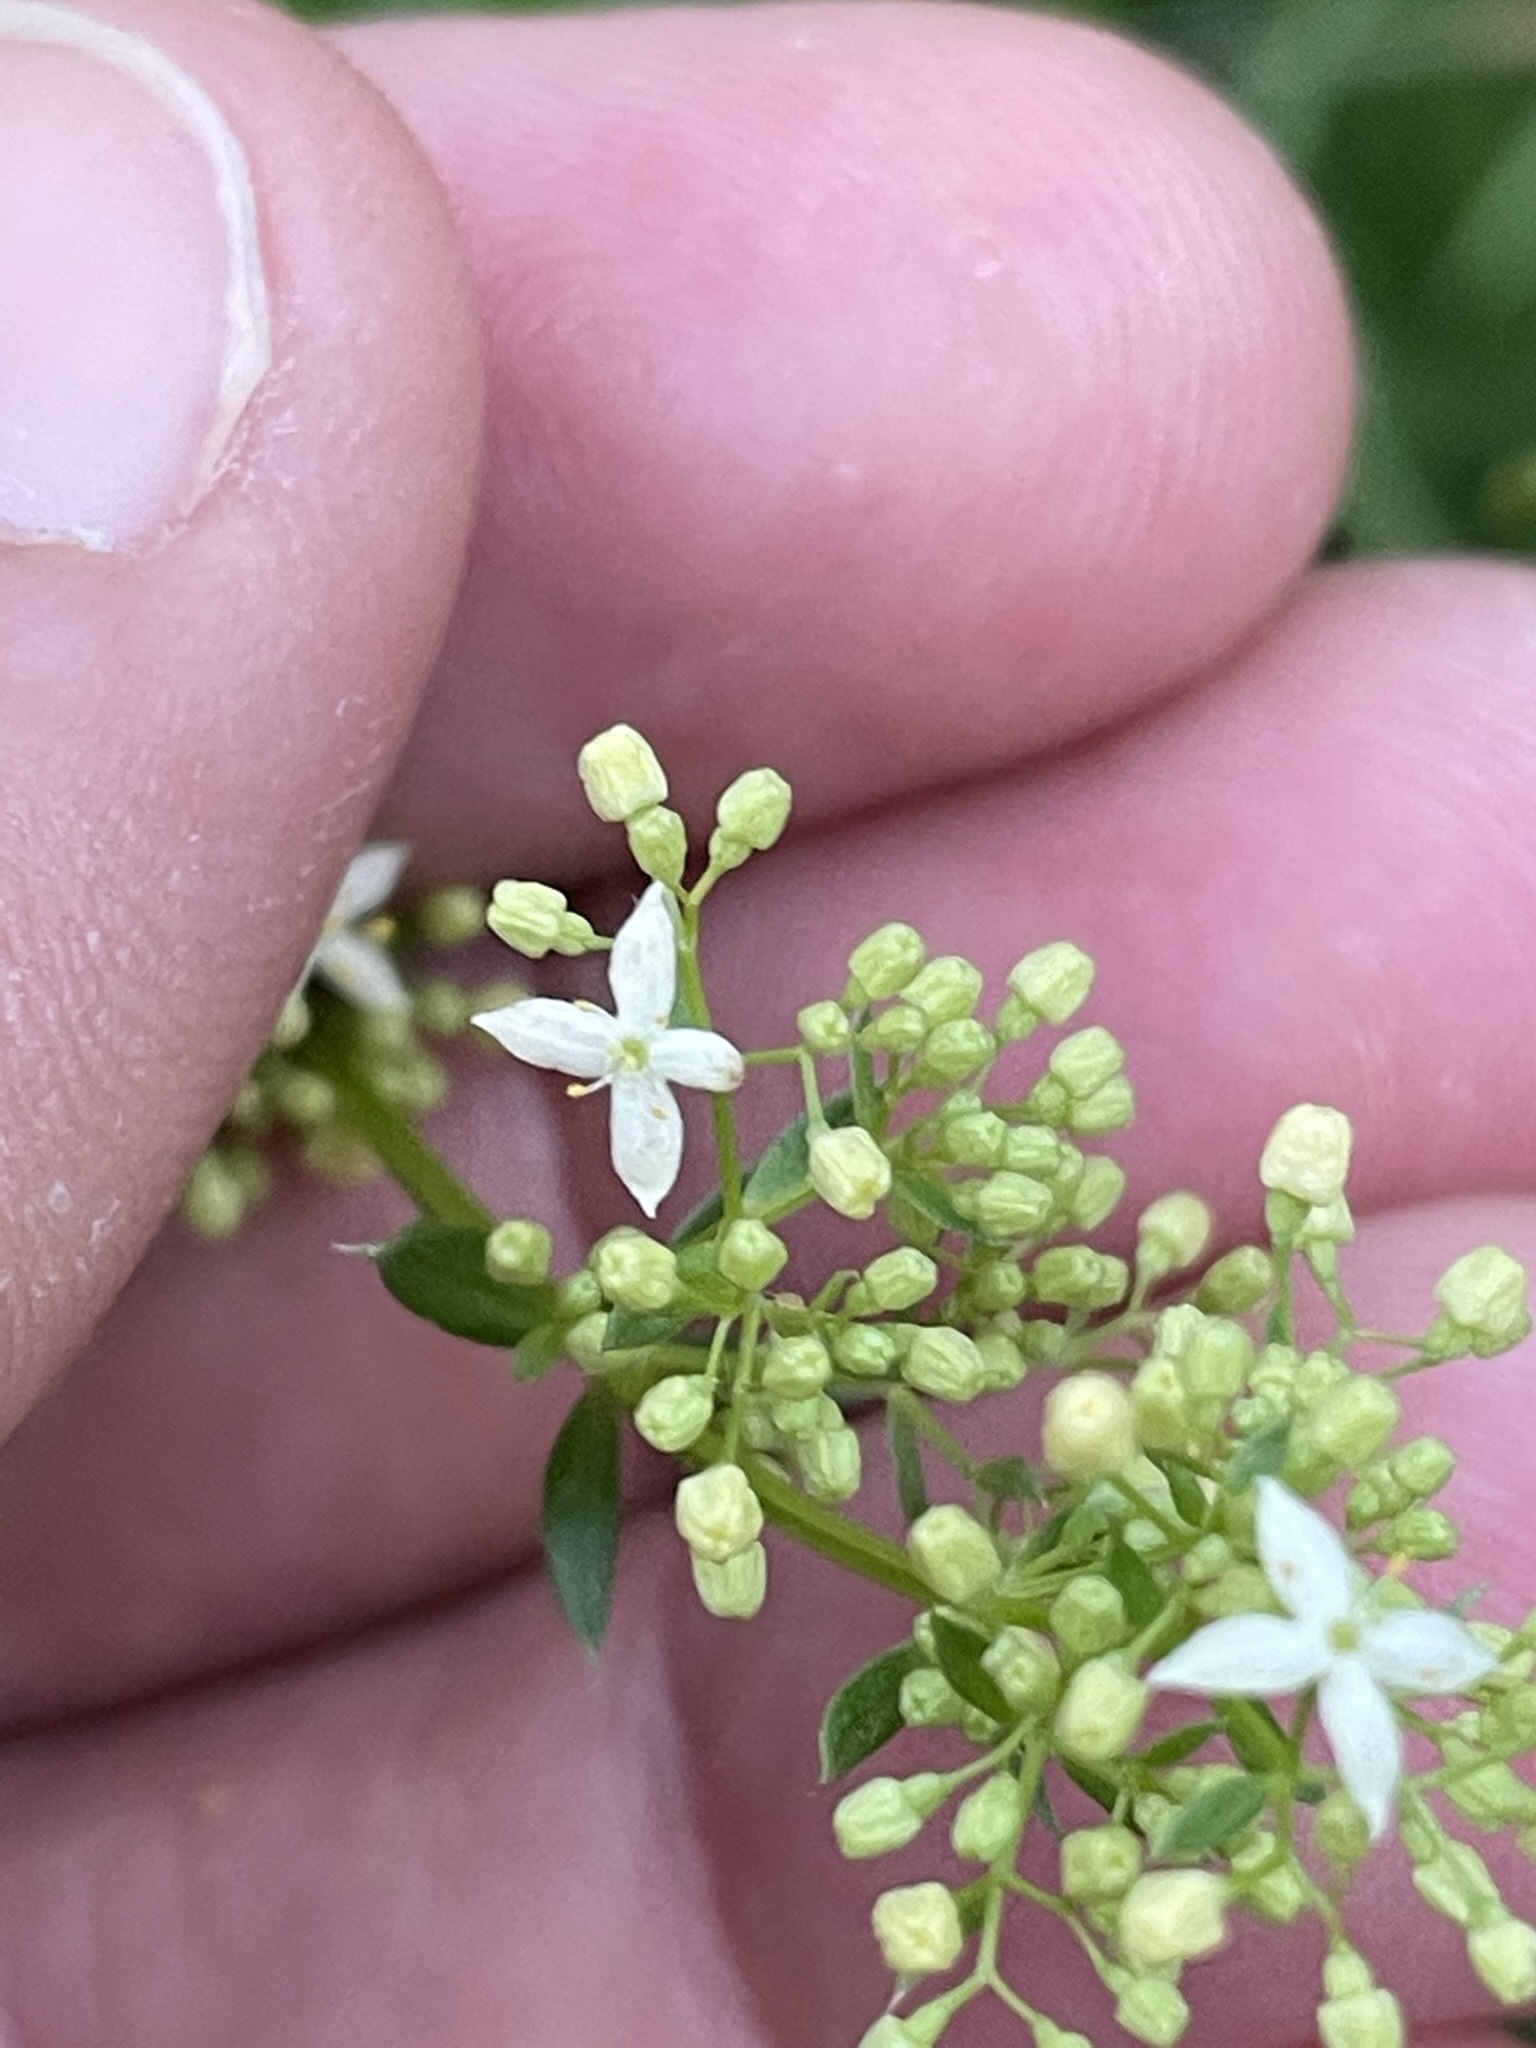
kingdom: Plantae
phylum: Tracheophyta
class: Magnoliopsida
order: Gentianales
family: Rubiaceae
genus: Galium
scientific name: Galium album
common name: White bedstraw
